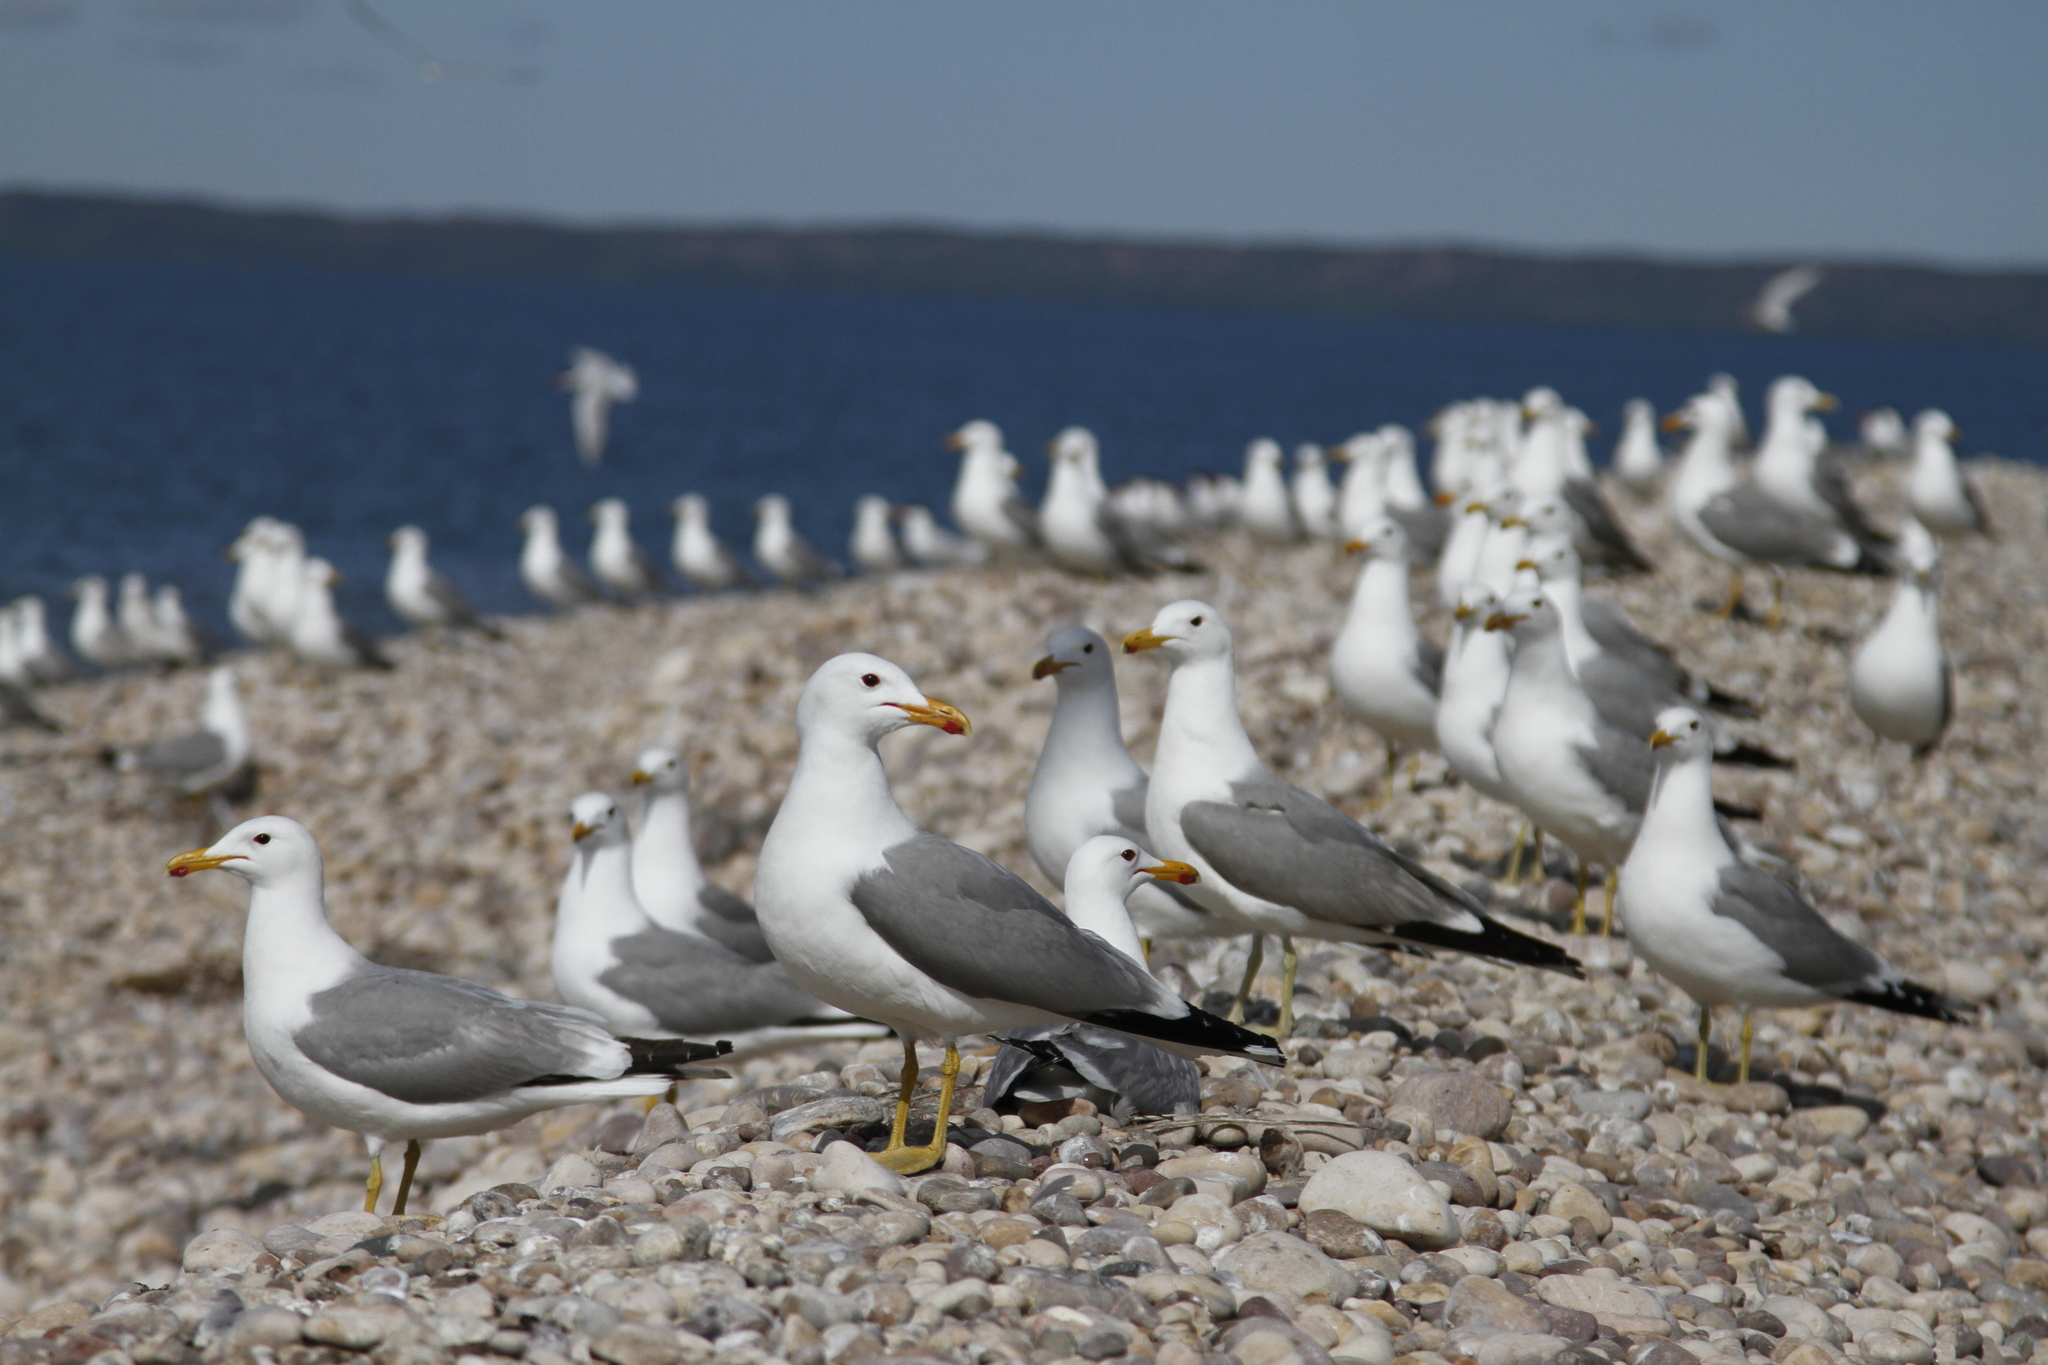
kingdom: Animalia
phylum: Chordata
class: Aves
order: Charadriiformes
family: Laridae
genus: Larus
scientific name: Larus californicus
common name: California gull
